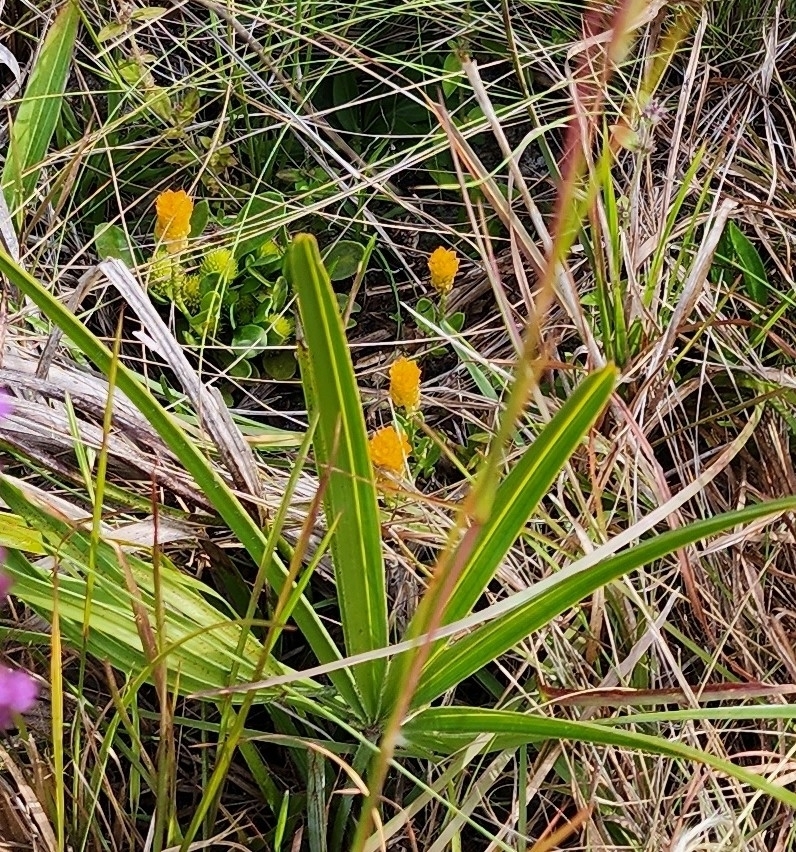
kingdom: Plantae
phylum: Tracheophyta
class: Magnoliopsida
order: Fabales
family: Polygalaceae
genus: Polygala
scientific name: Polygala lutea
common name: Orange milkwort
